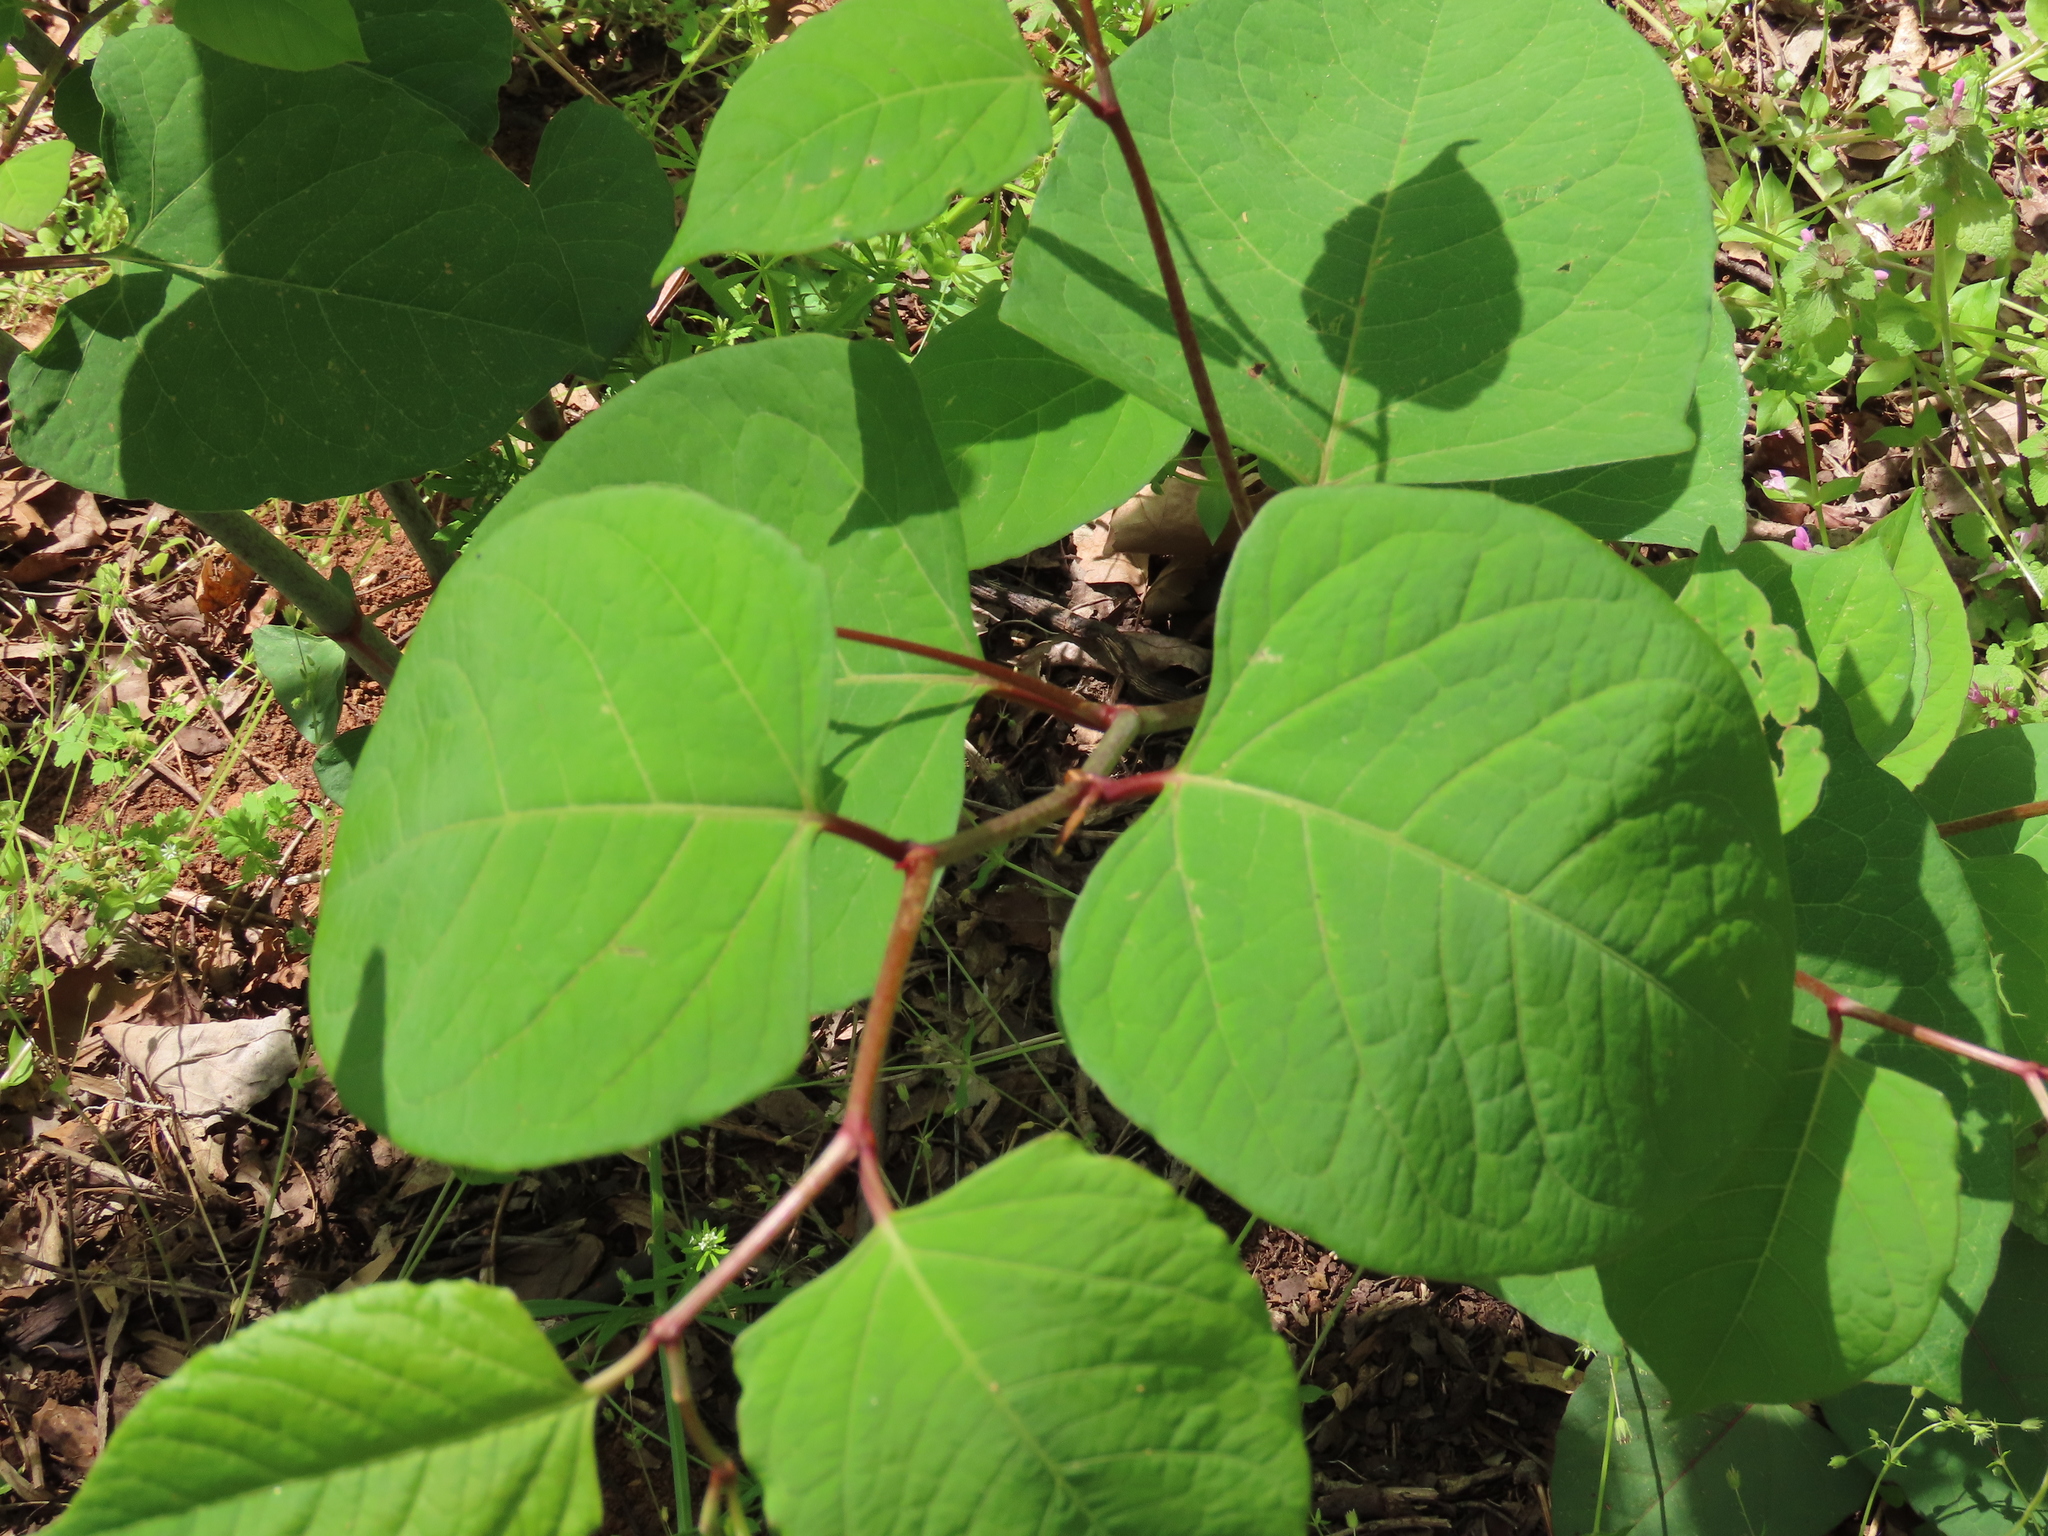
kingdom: Plantae
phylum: Tracheophyta
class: Magnoliopsida
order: Caryophyllales
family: Polygonaceae
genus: Reynoutria
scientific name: Reynoutria japonica
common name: Japanese knotweed
